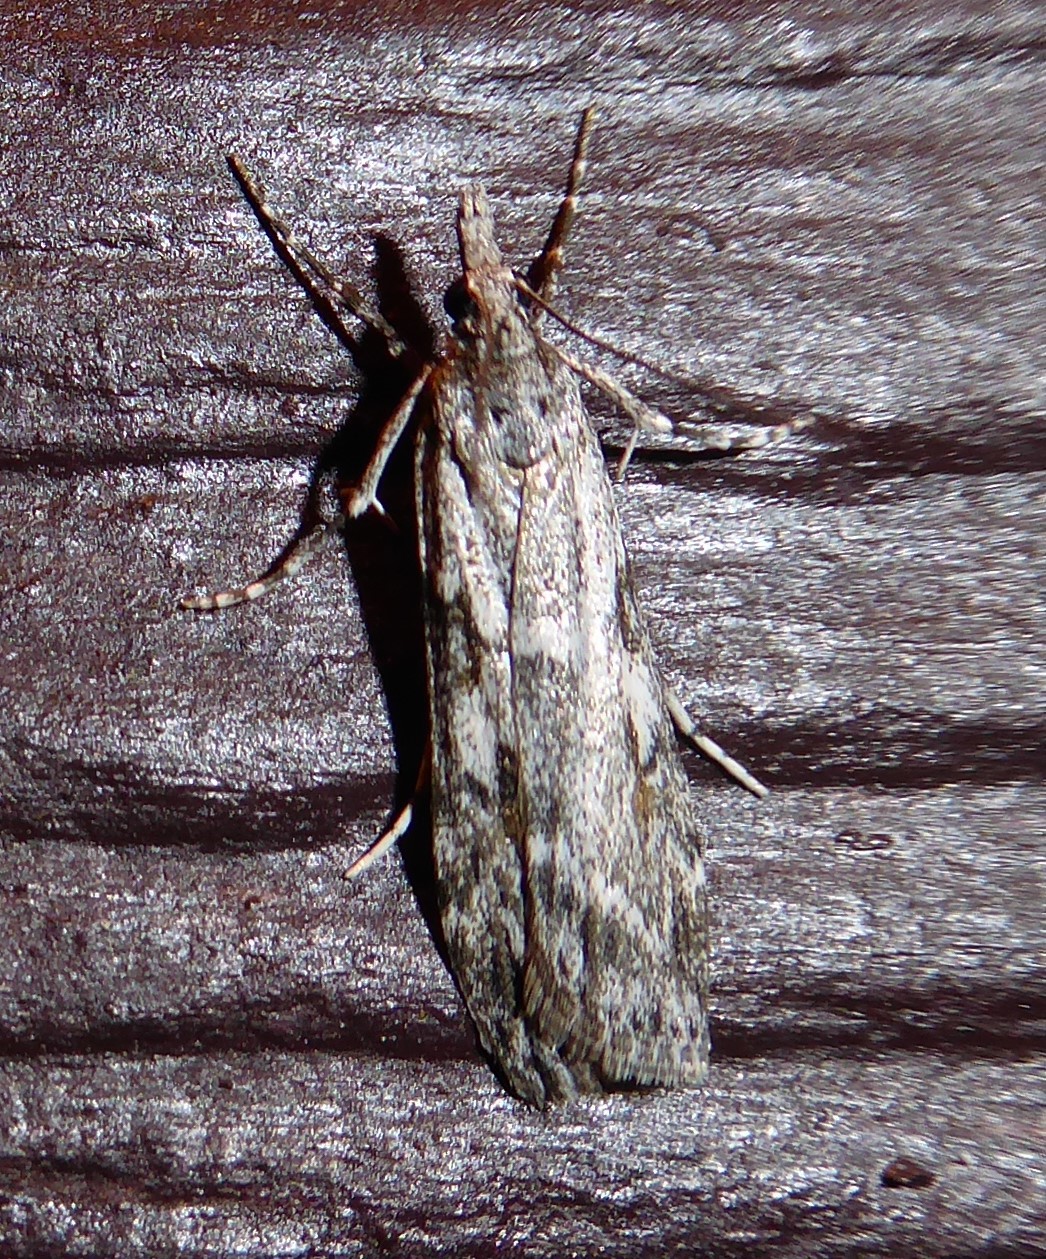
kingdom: Animalia
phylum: Arthropoda
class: Insecta
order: Lepidoptera
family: Crambidae
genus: Scoparia
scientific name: Scoparia halopis
